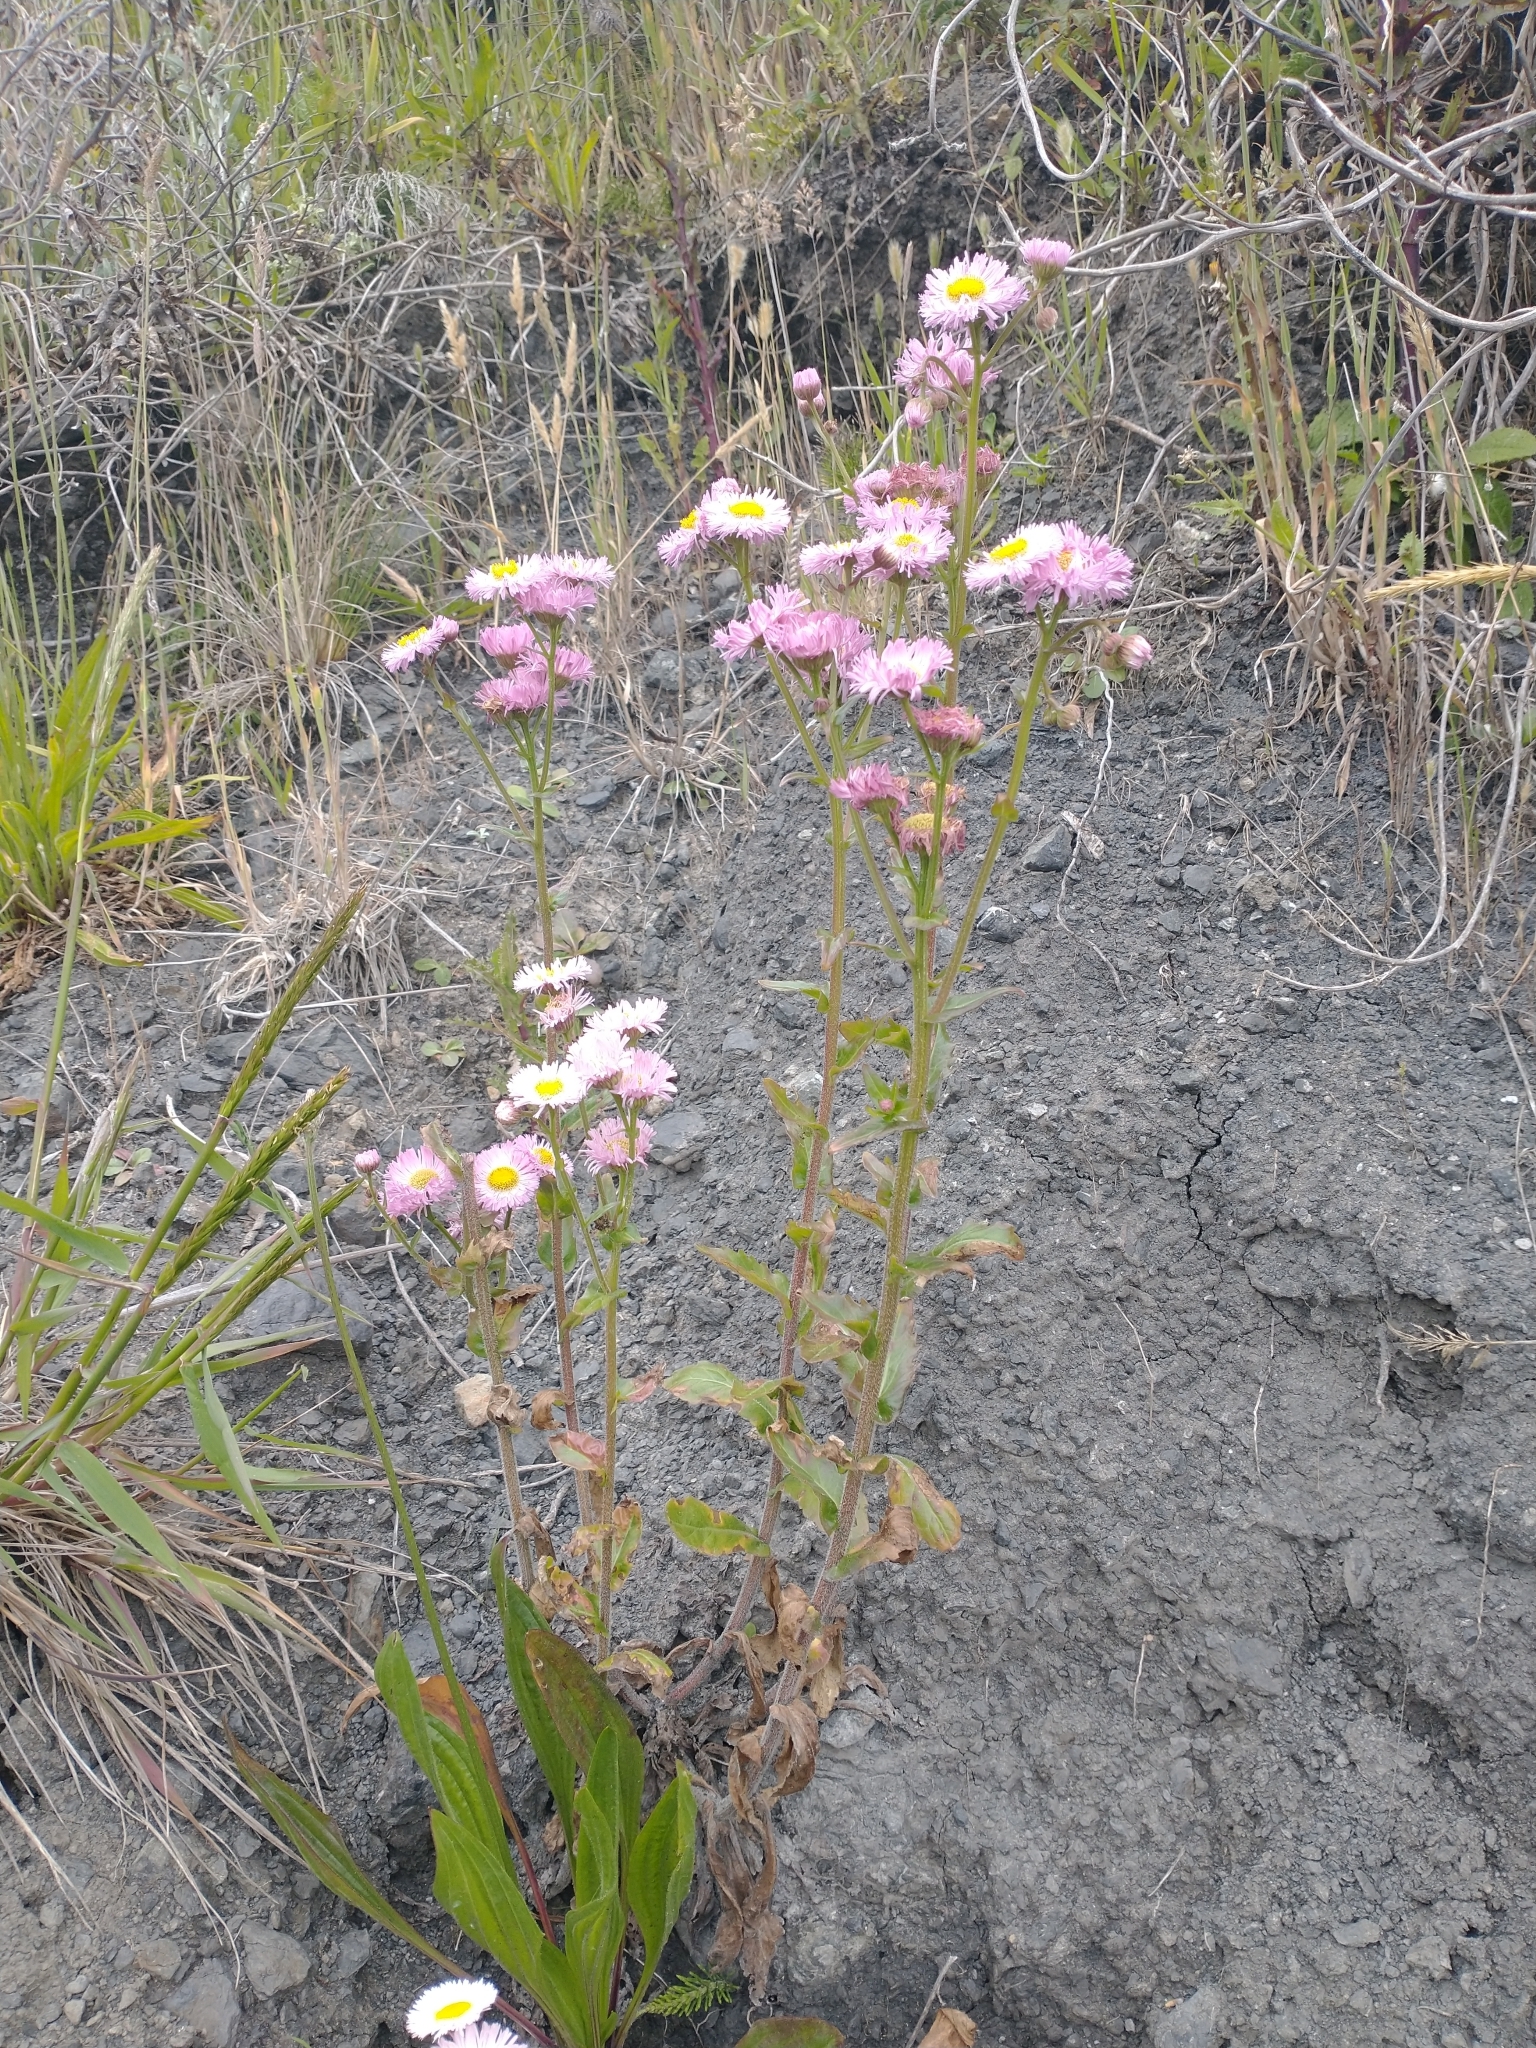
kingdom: Plantae
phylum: Tracheophyta
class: Magnoliopsida
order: Asterales
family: Asteraceae
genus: Erigeron
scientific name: Erigeron philadelphicus
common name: Robin's-plantain
